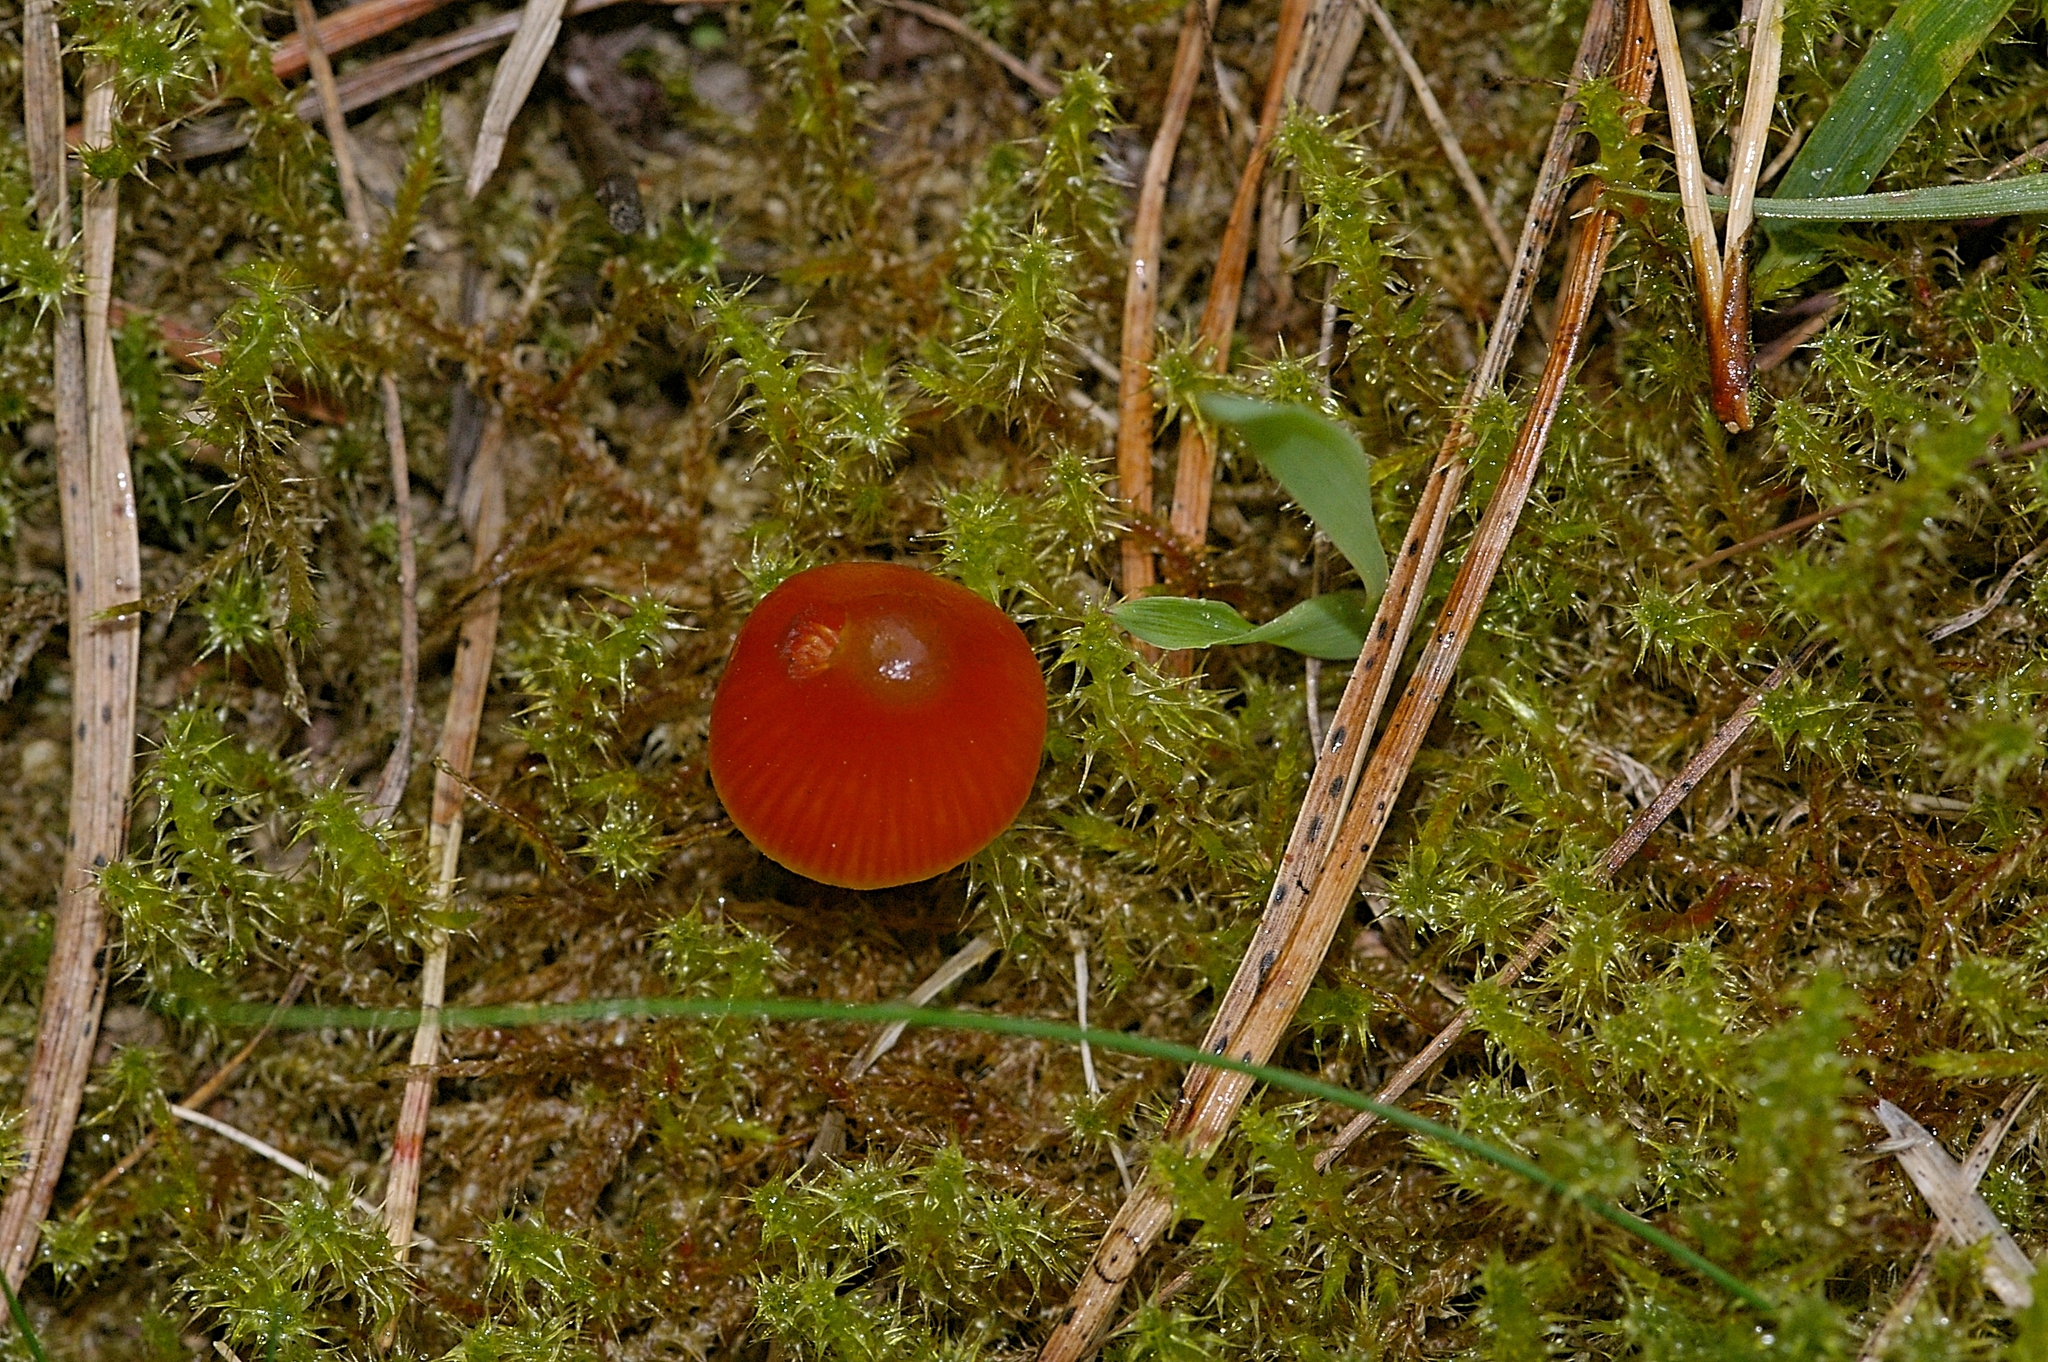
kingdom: Plantae
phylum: Bryophyta
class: Bryopsida
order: Hypnales
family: Hylocomiaceae
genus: Rhytidiadelphus
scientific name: Rhytidiadelphus squarrosus
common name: Springy turf-moss
